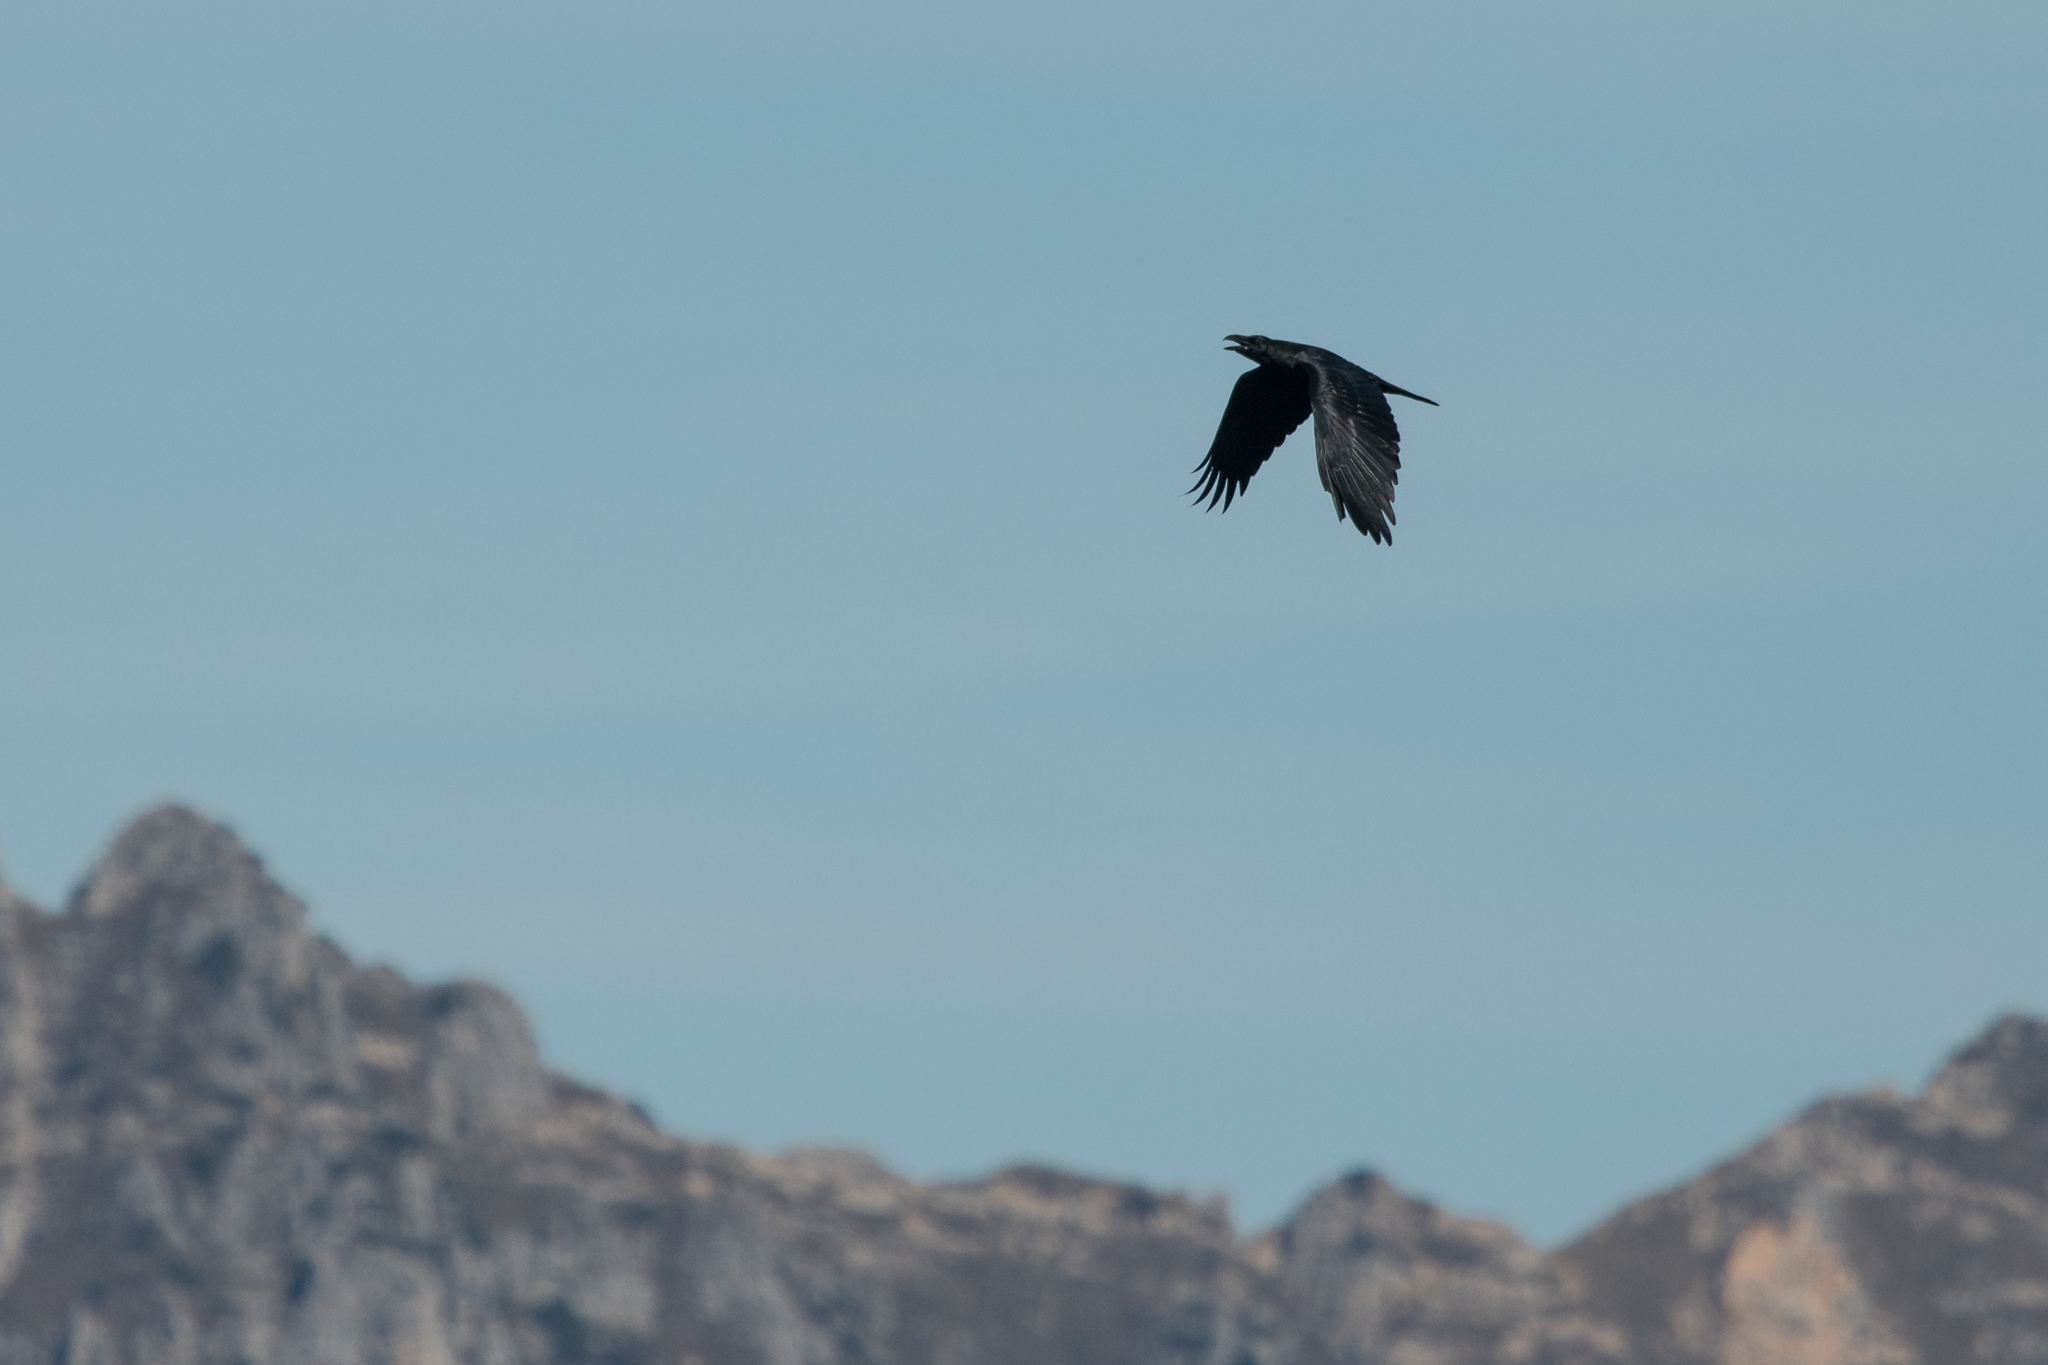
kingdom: Animalia
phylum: Chordata
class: Aves
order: Passeriformes
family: Corvidae
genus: Corvus
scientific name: Corvus corax
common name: Common raven
